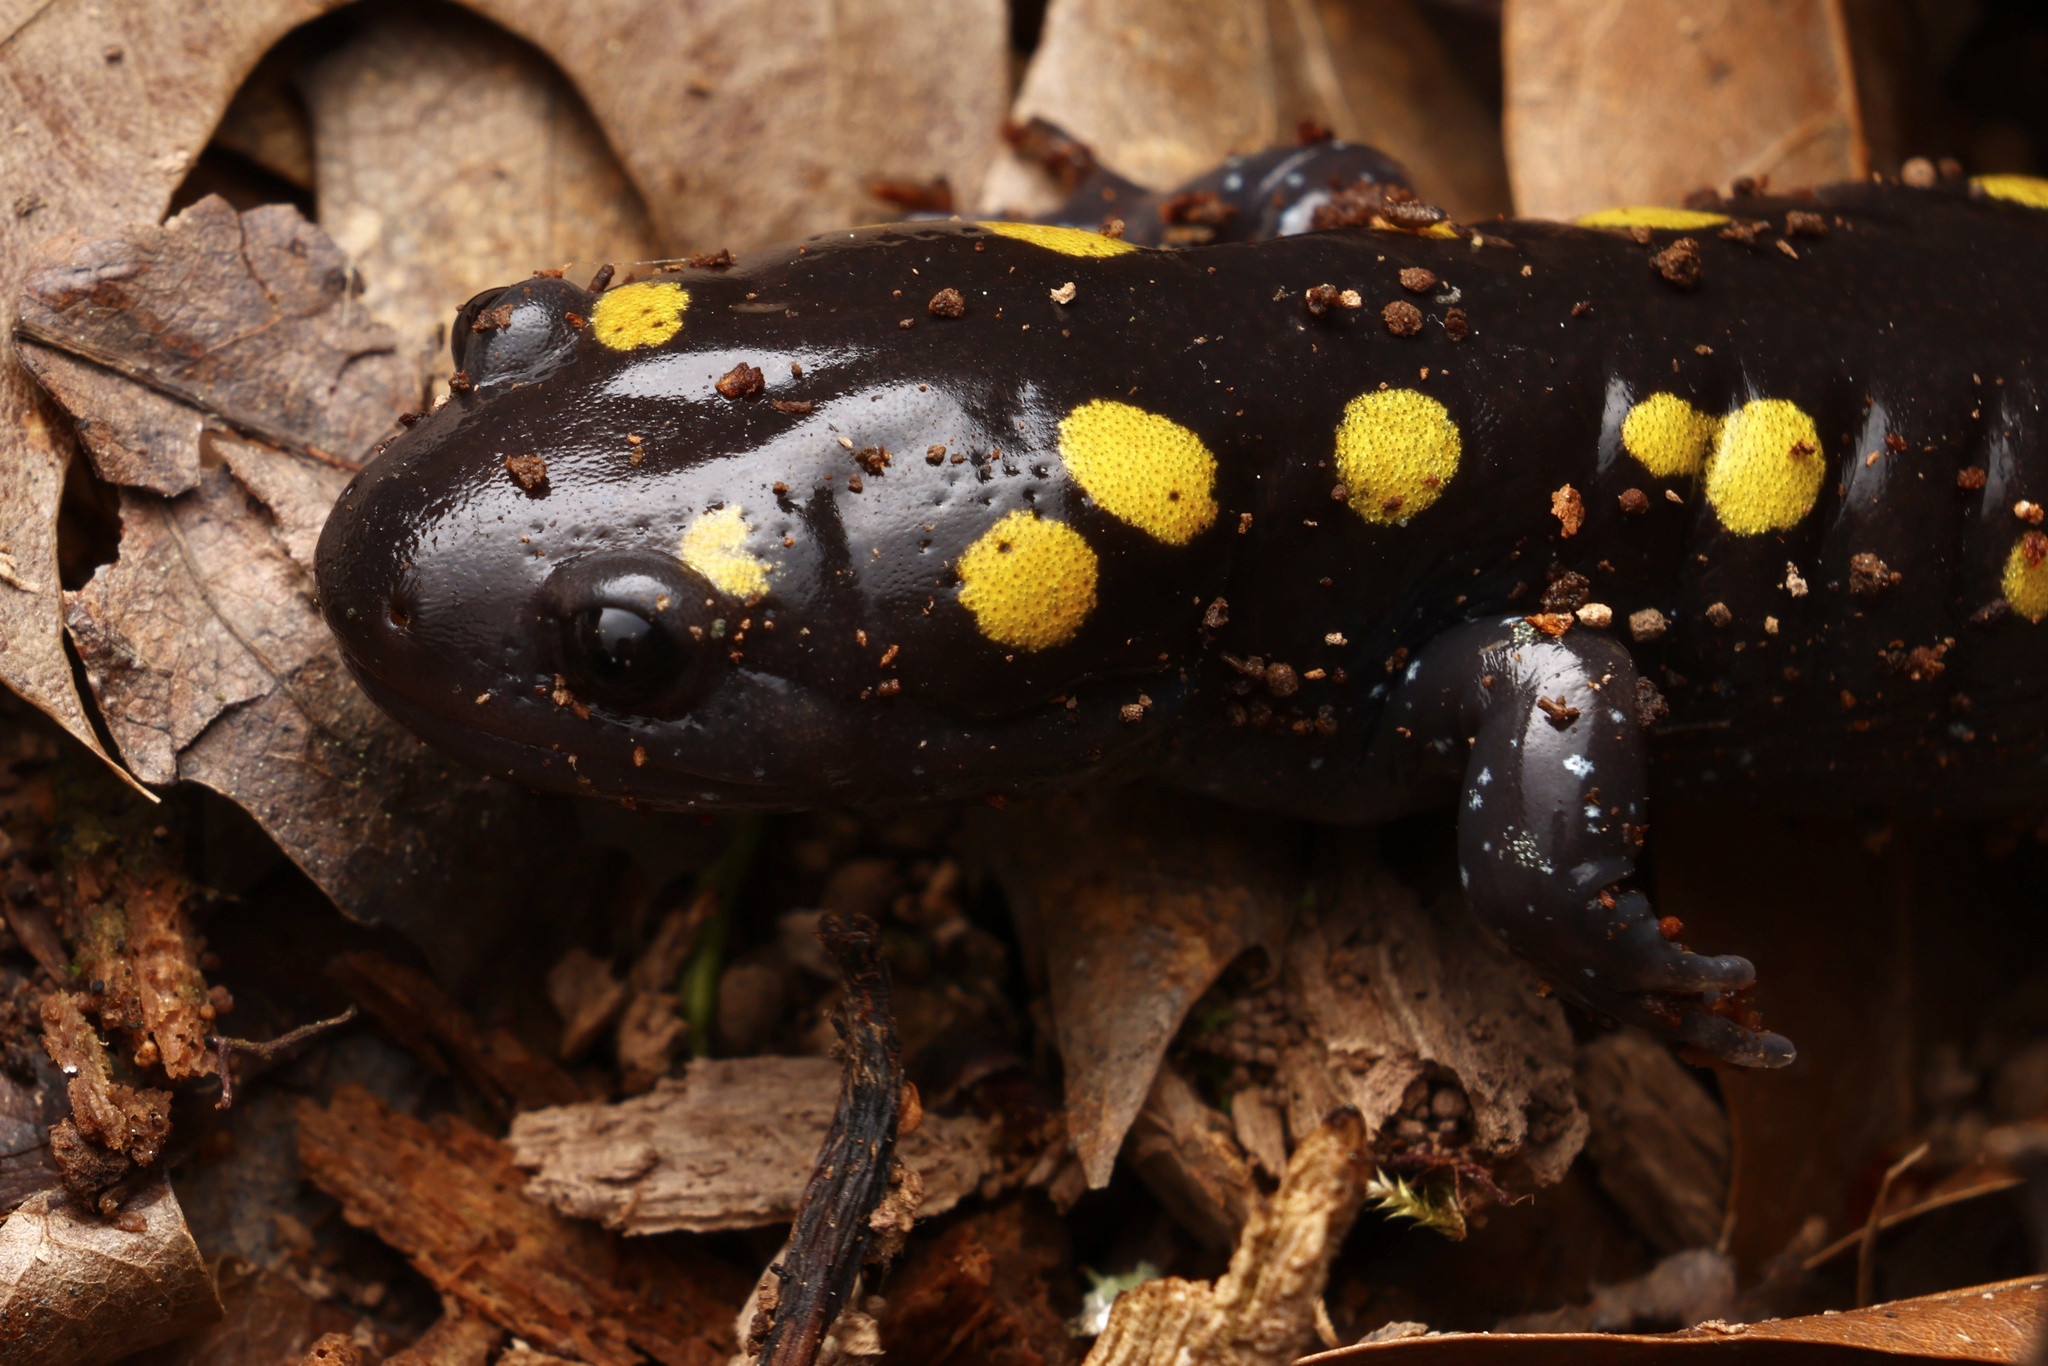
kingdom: Animalia
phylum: Chordata
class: Amphibia
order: Caudata
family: Ambystomatidae
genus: Ambystoma
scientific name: Ambystoma maculatum
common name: Spotted salamander
